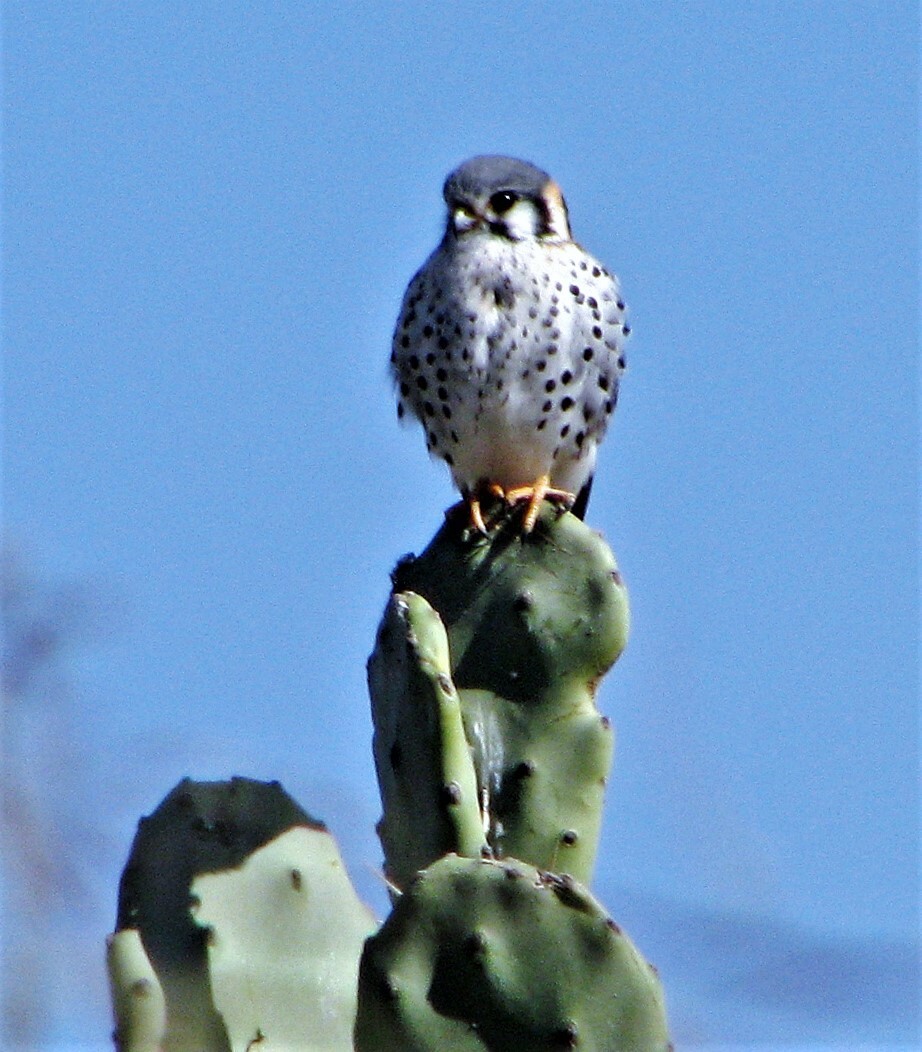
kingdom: Animalia
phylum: Chordata
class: Aves
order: Falconiformes
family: Falconidae
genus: Falco
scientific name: Falco sparverius
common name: American kestrel
